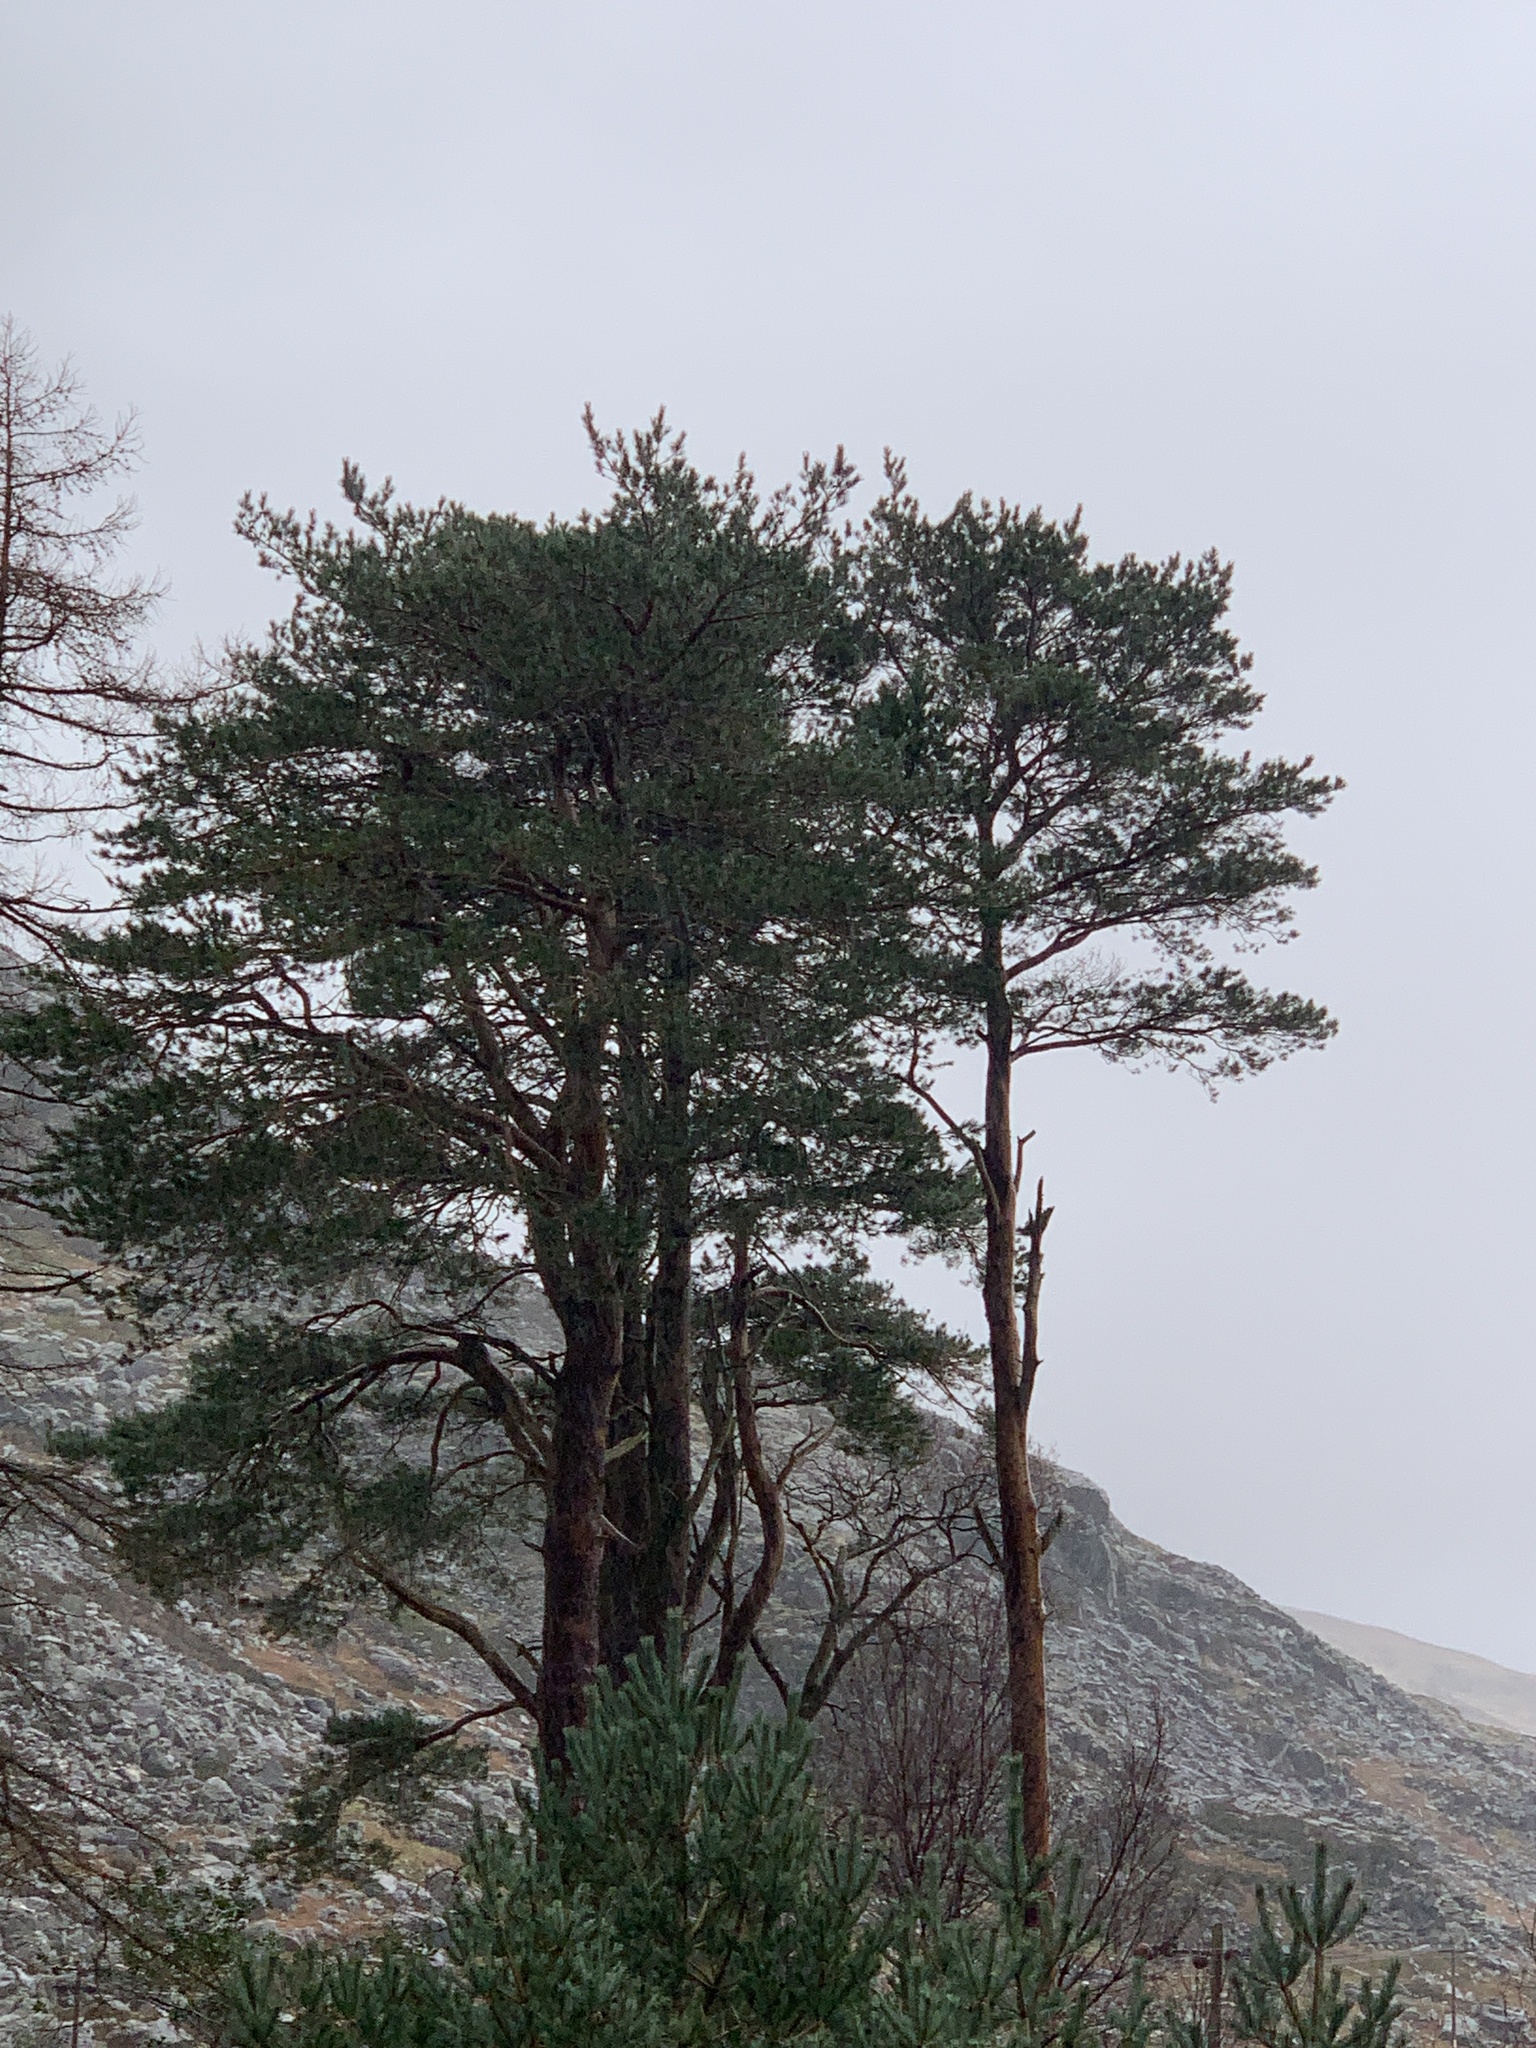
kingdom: Plantae
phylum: Tracheophyta
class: Pinopsida
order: Pinales
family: Pinaceae
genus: Pinus
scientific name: Pinus sylvestris
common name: Scots pine
